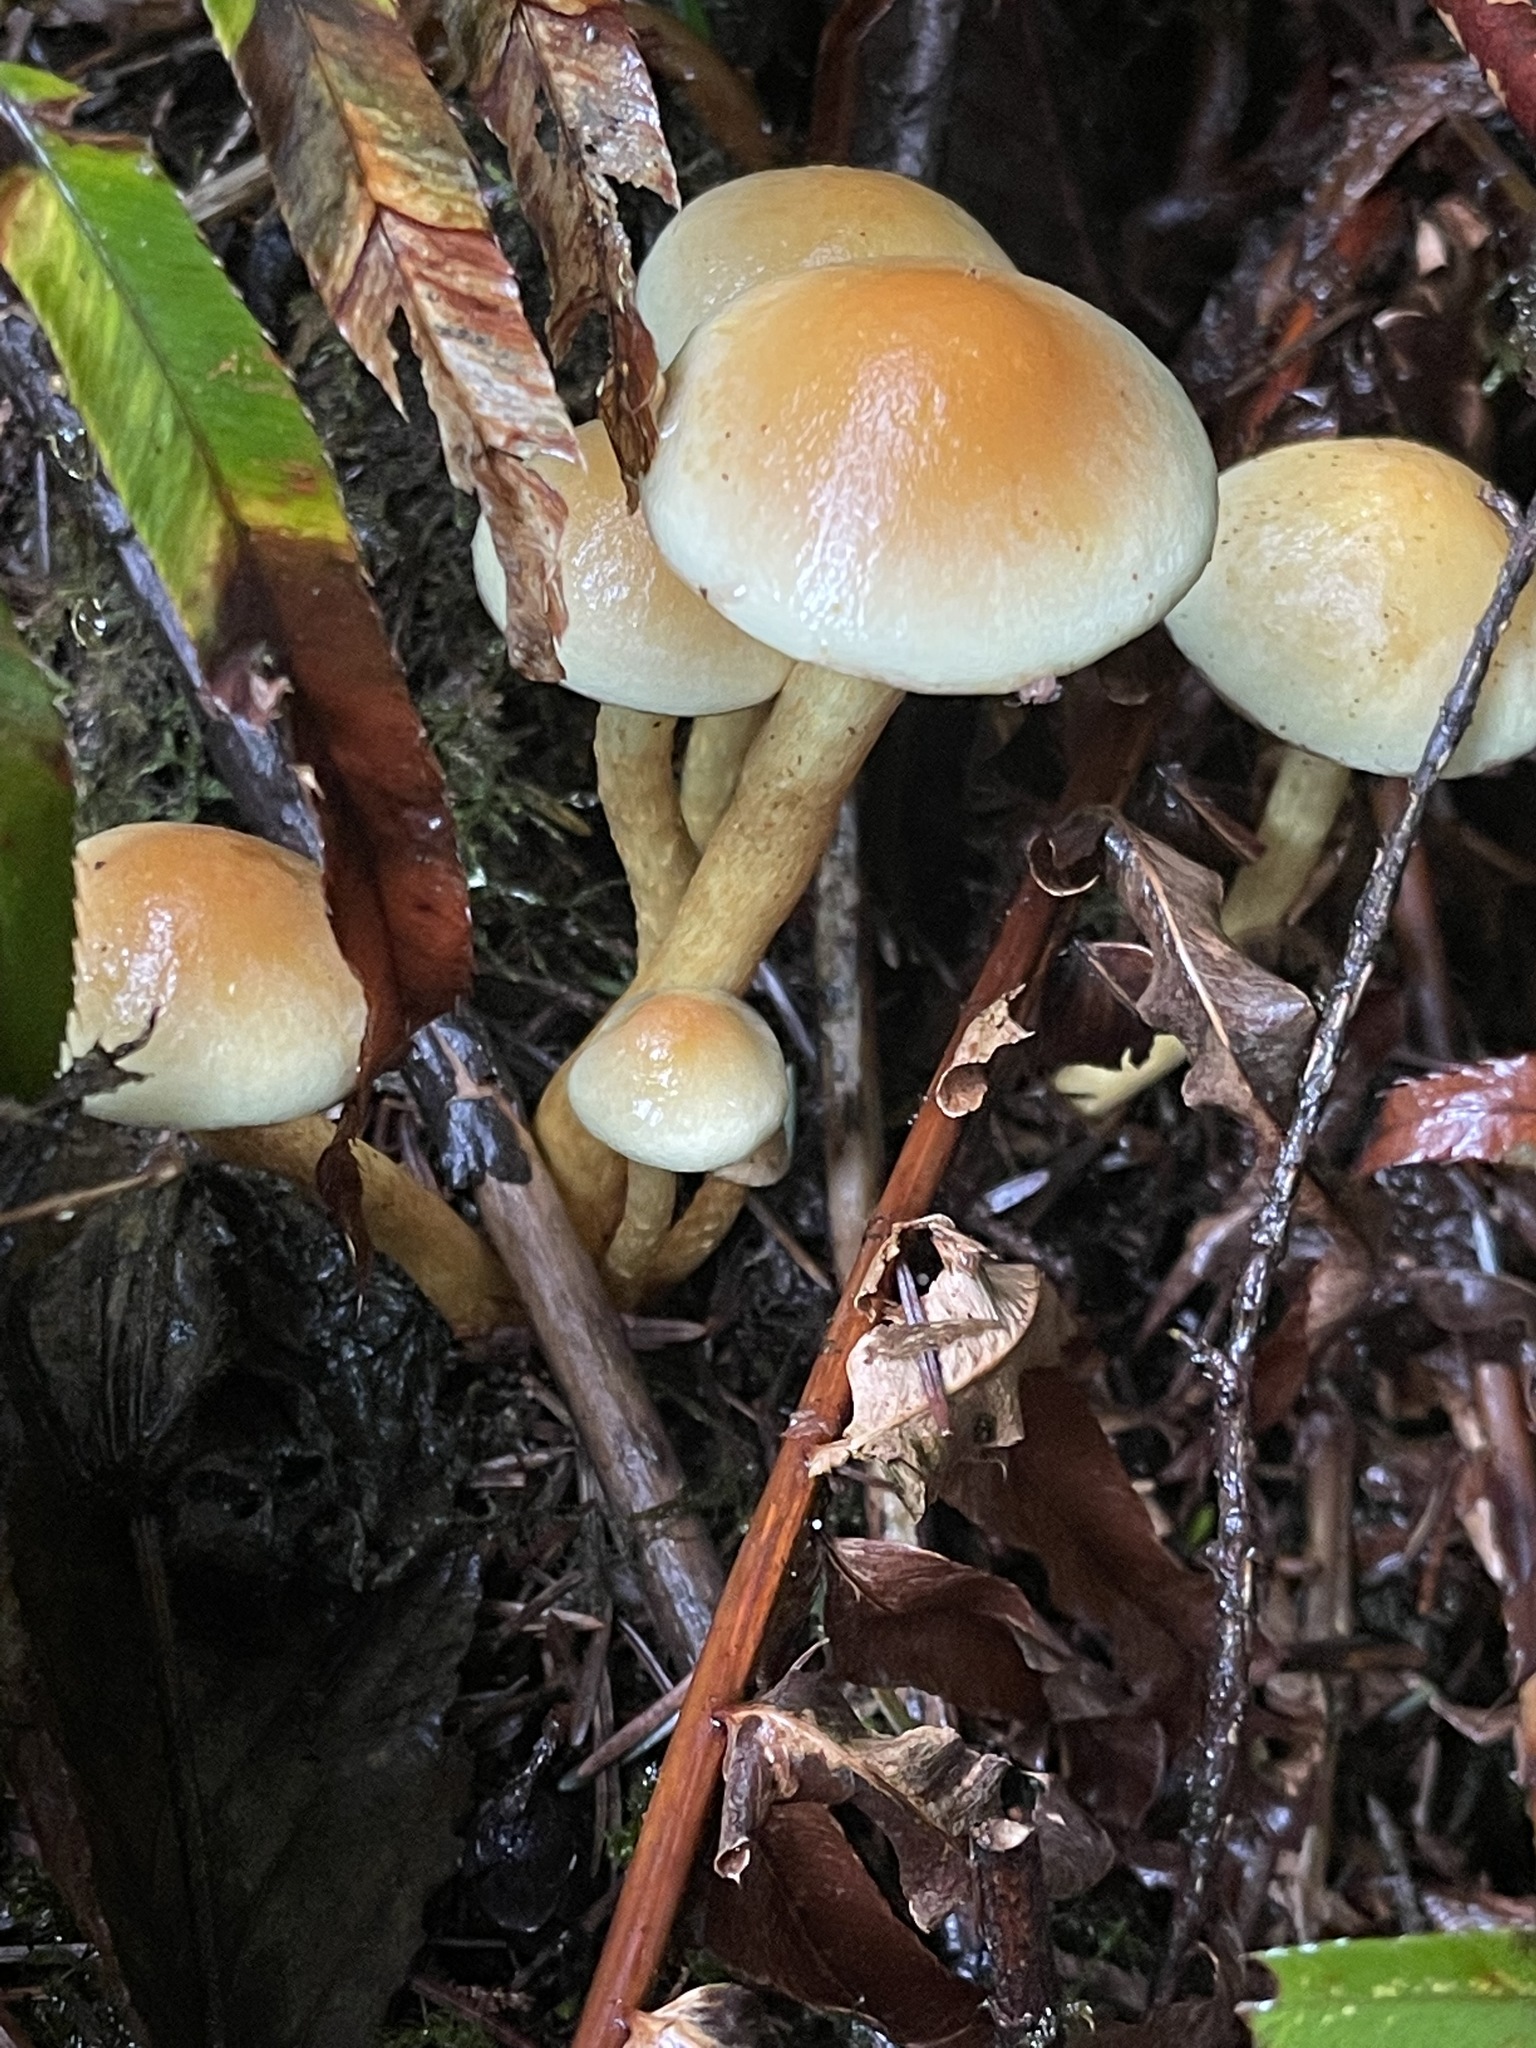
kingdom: Fungi
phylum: Basidiomycota
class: Agaricomycetes
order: Agaricales
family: Strophariaceae
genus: Hypholoma
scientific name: Hypholoma fasciculare
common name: Sulphur tuft
